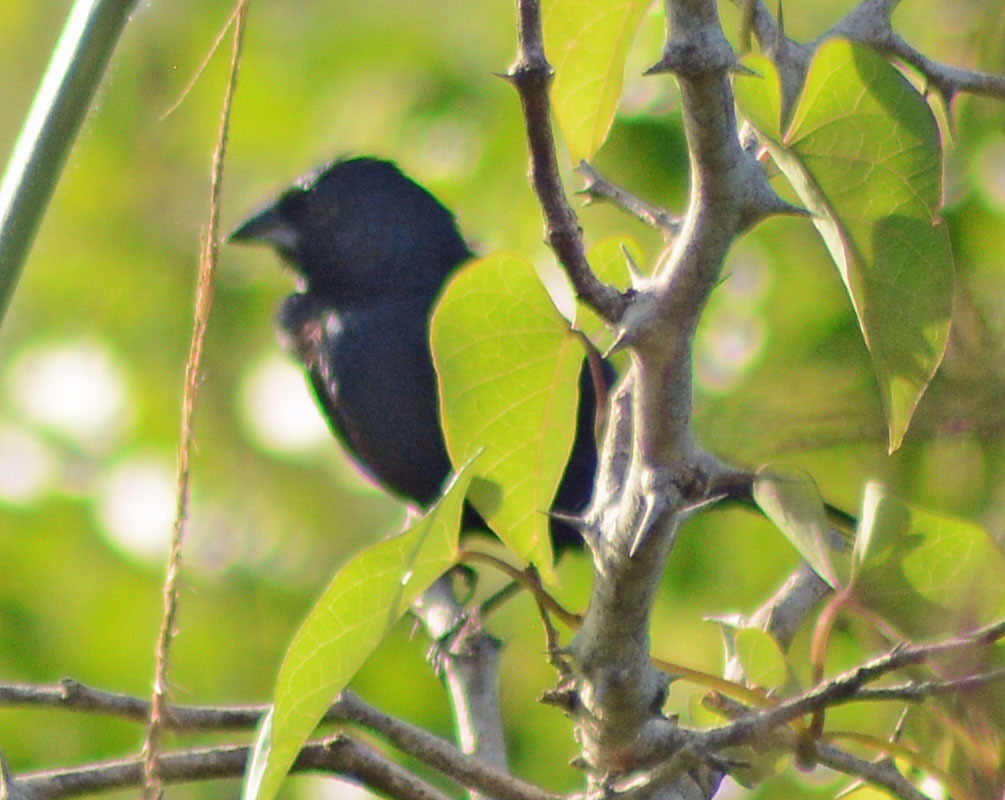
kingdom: Animalia
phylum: Chordata
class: Aves
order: Passeriformes
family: Thraupidae
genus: Volatinia
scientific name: Volatinia jacarina
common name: Blue-black grassquit
